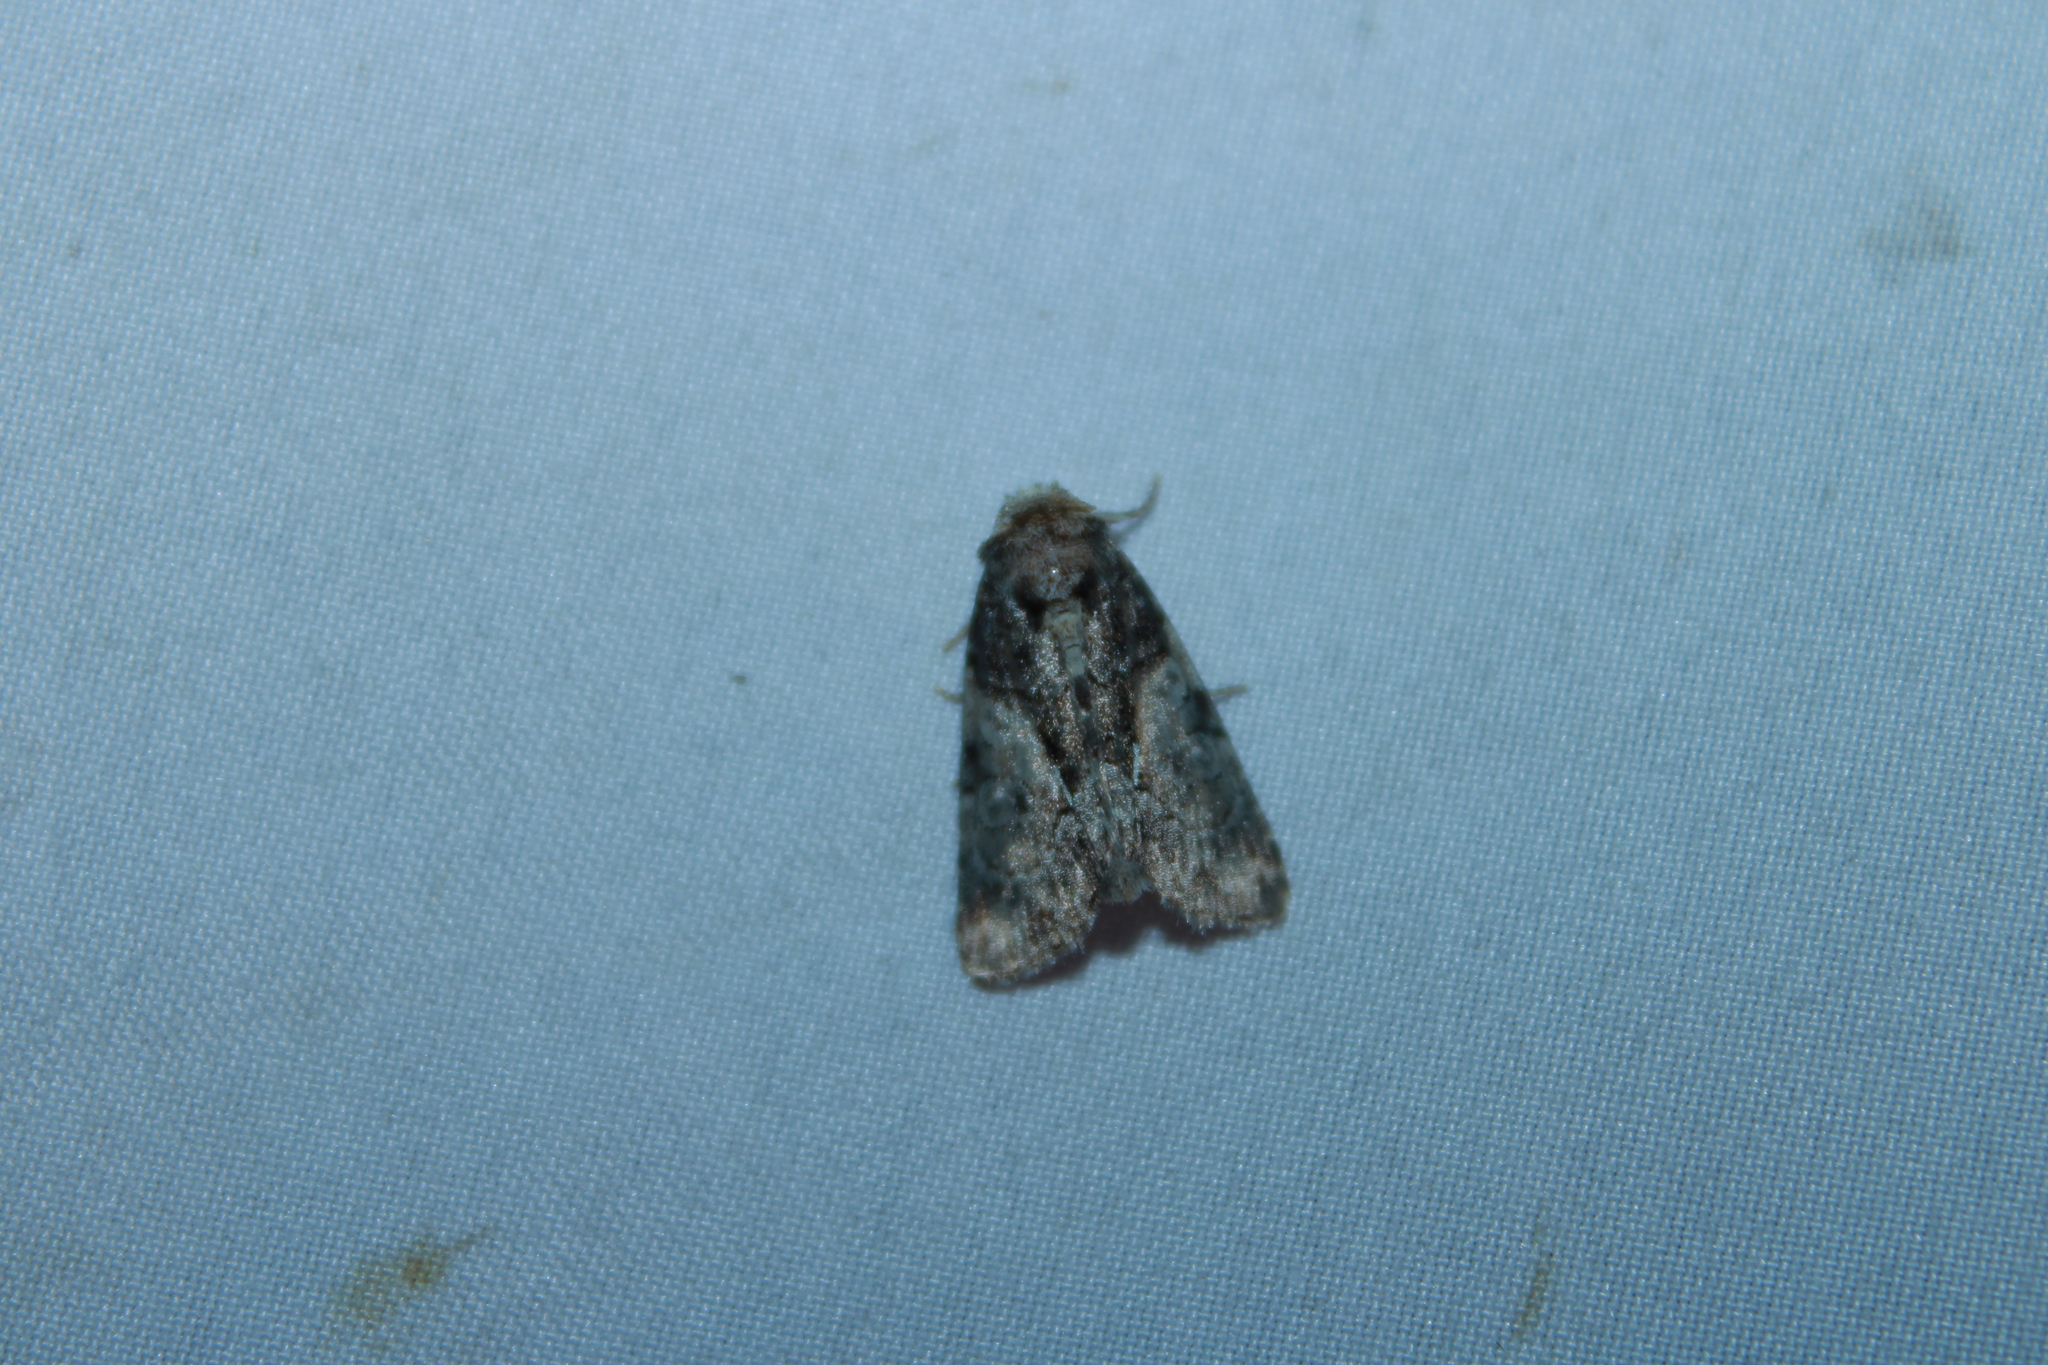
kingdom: Animalia
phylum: Arthropoda
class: Insecta
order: Lepidoptera
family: Noctuidae
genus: Chytonix
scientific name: Chytonix palliatricula
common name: Cloaked marvel
